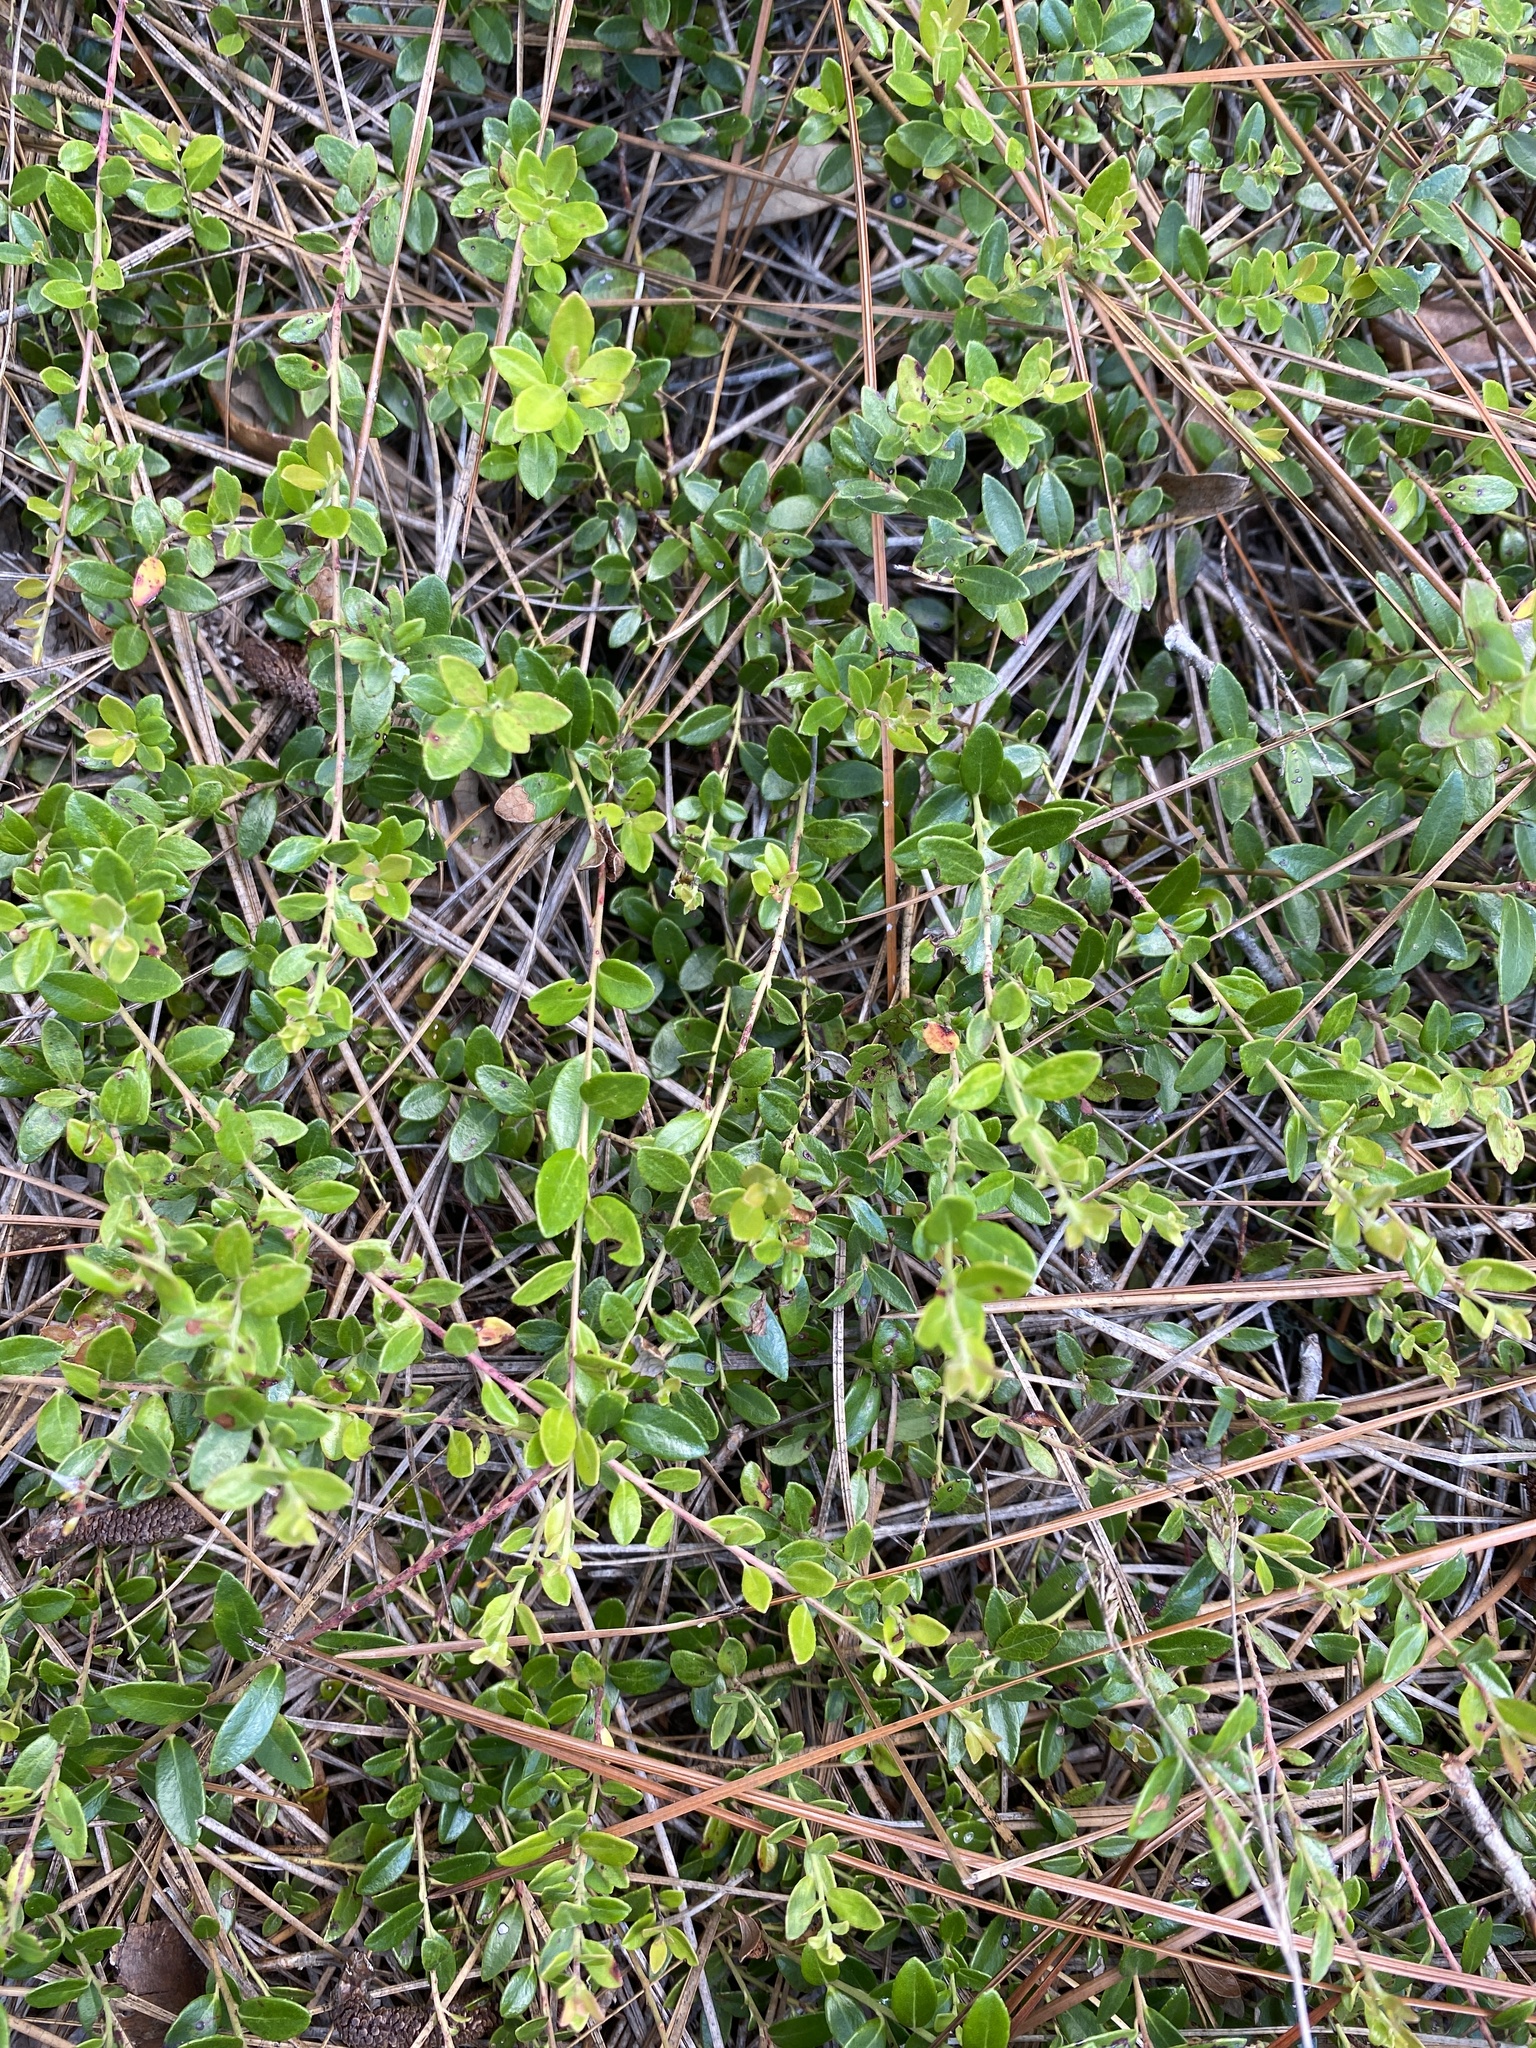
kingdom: Plantae
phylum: Tracheophyta
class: Magnoliopsida
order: Ericales
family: Ericaceae
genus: Vaccinium
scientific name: Vaccinium crassifolium
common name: Creeping blueberry
